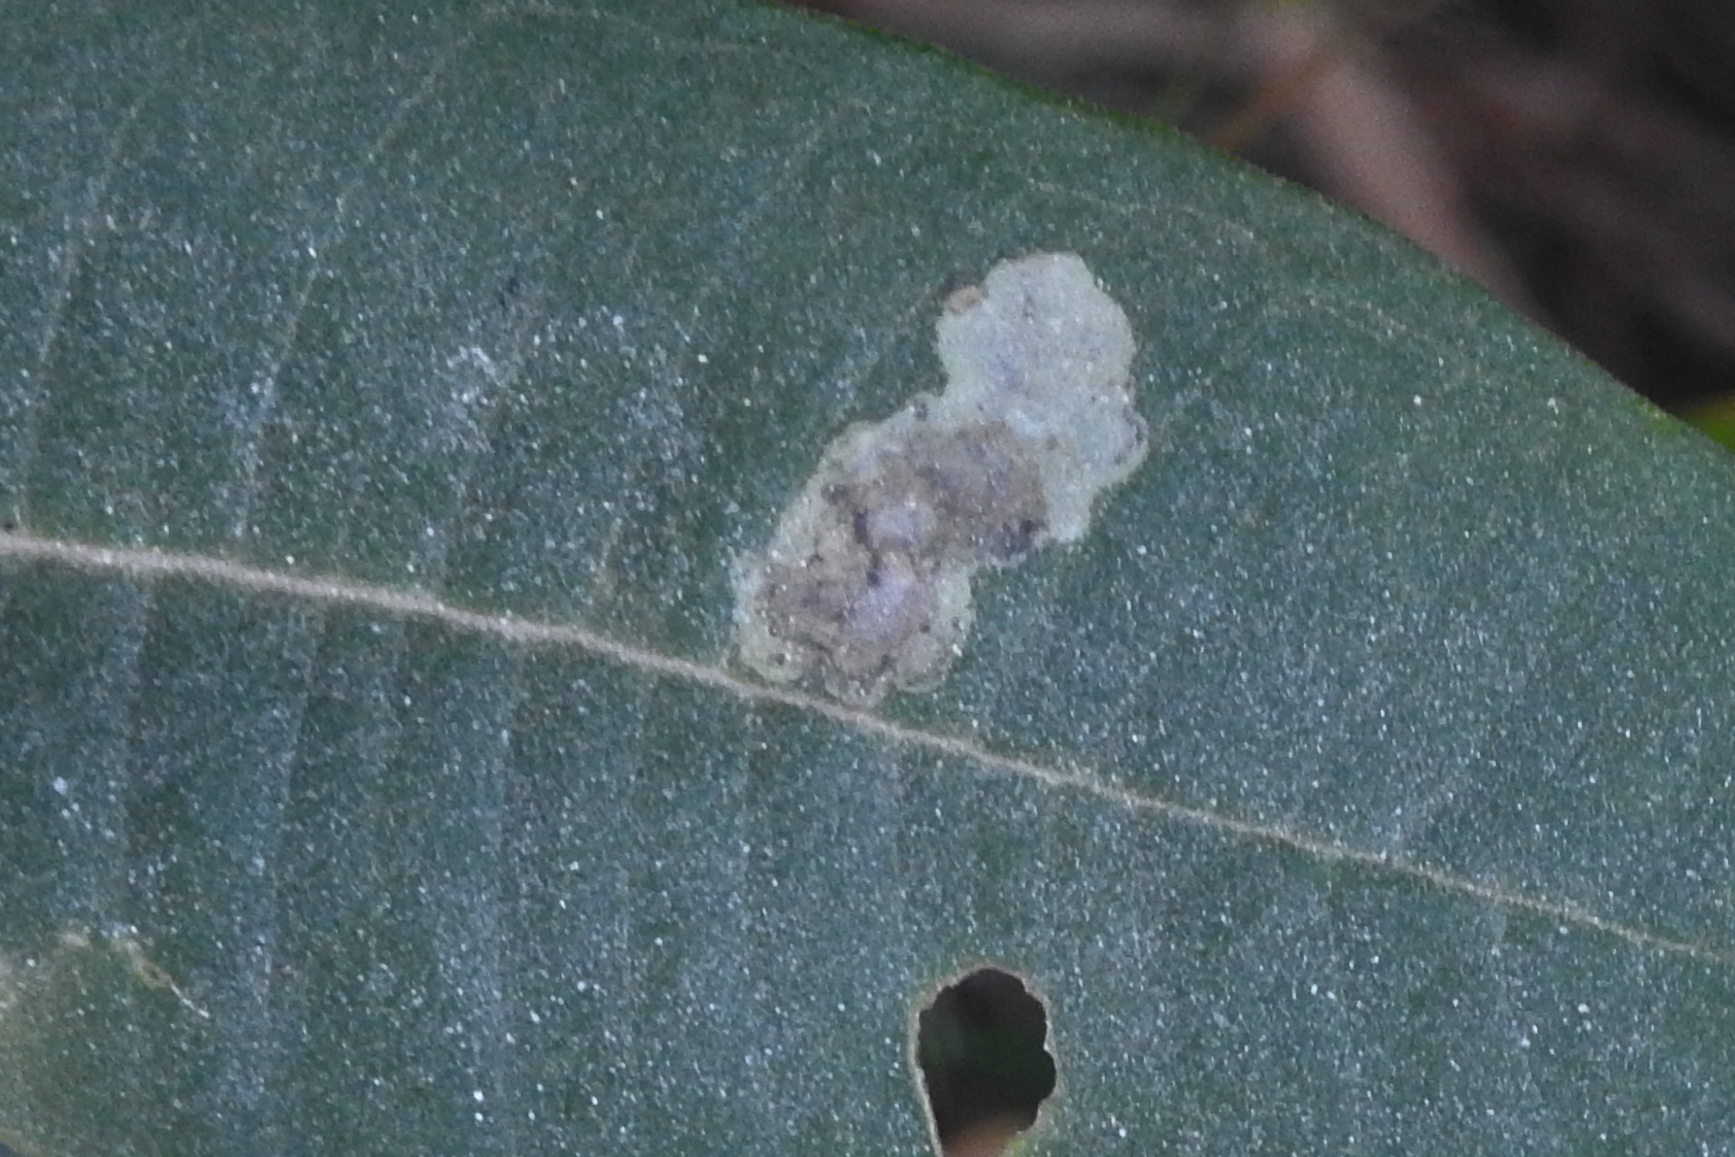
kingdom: Animalia
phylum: Arthropoda
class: Insecta
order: Diptera
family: Agromyzidae
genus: Liriomyza
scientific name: Liriomyza asclepiadis
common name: Milkweed leaf-miner fly
